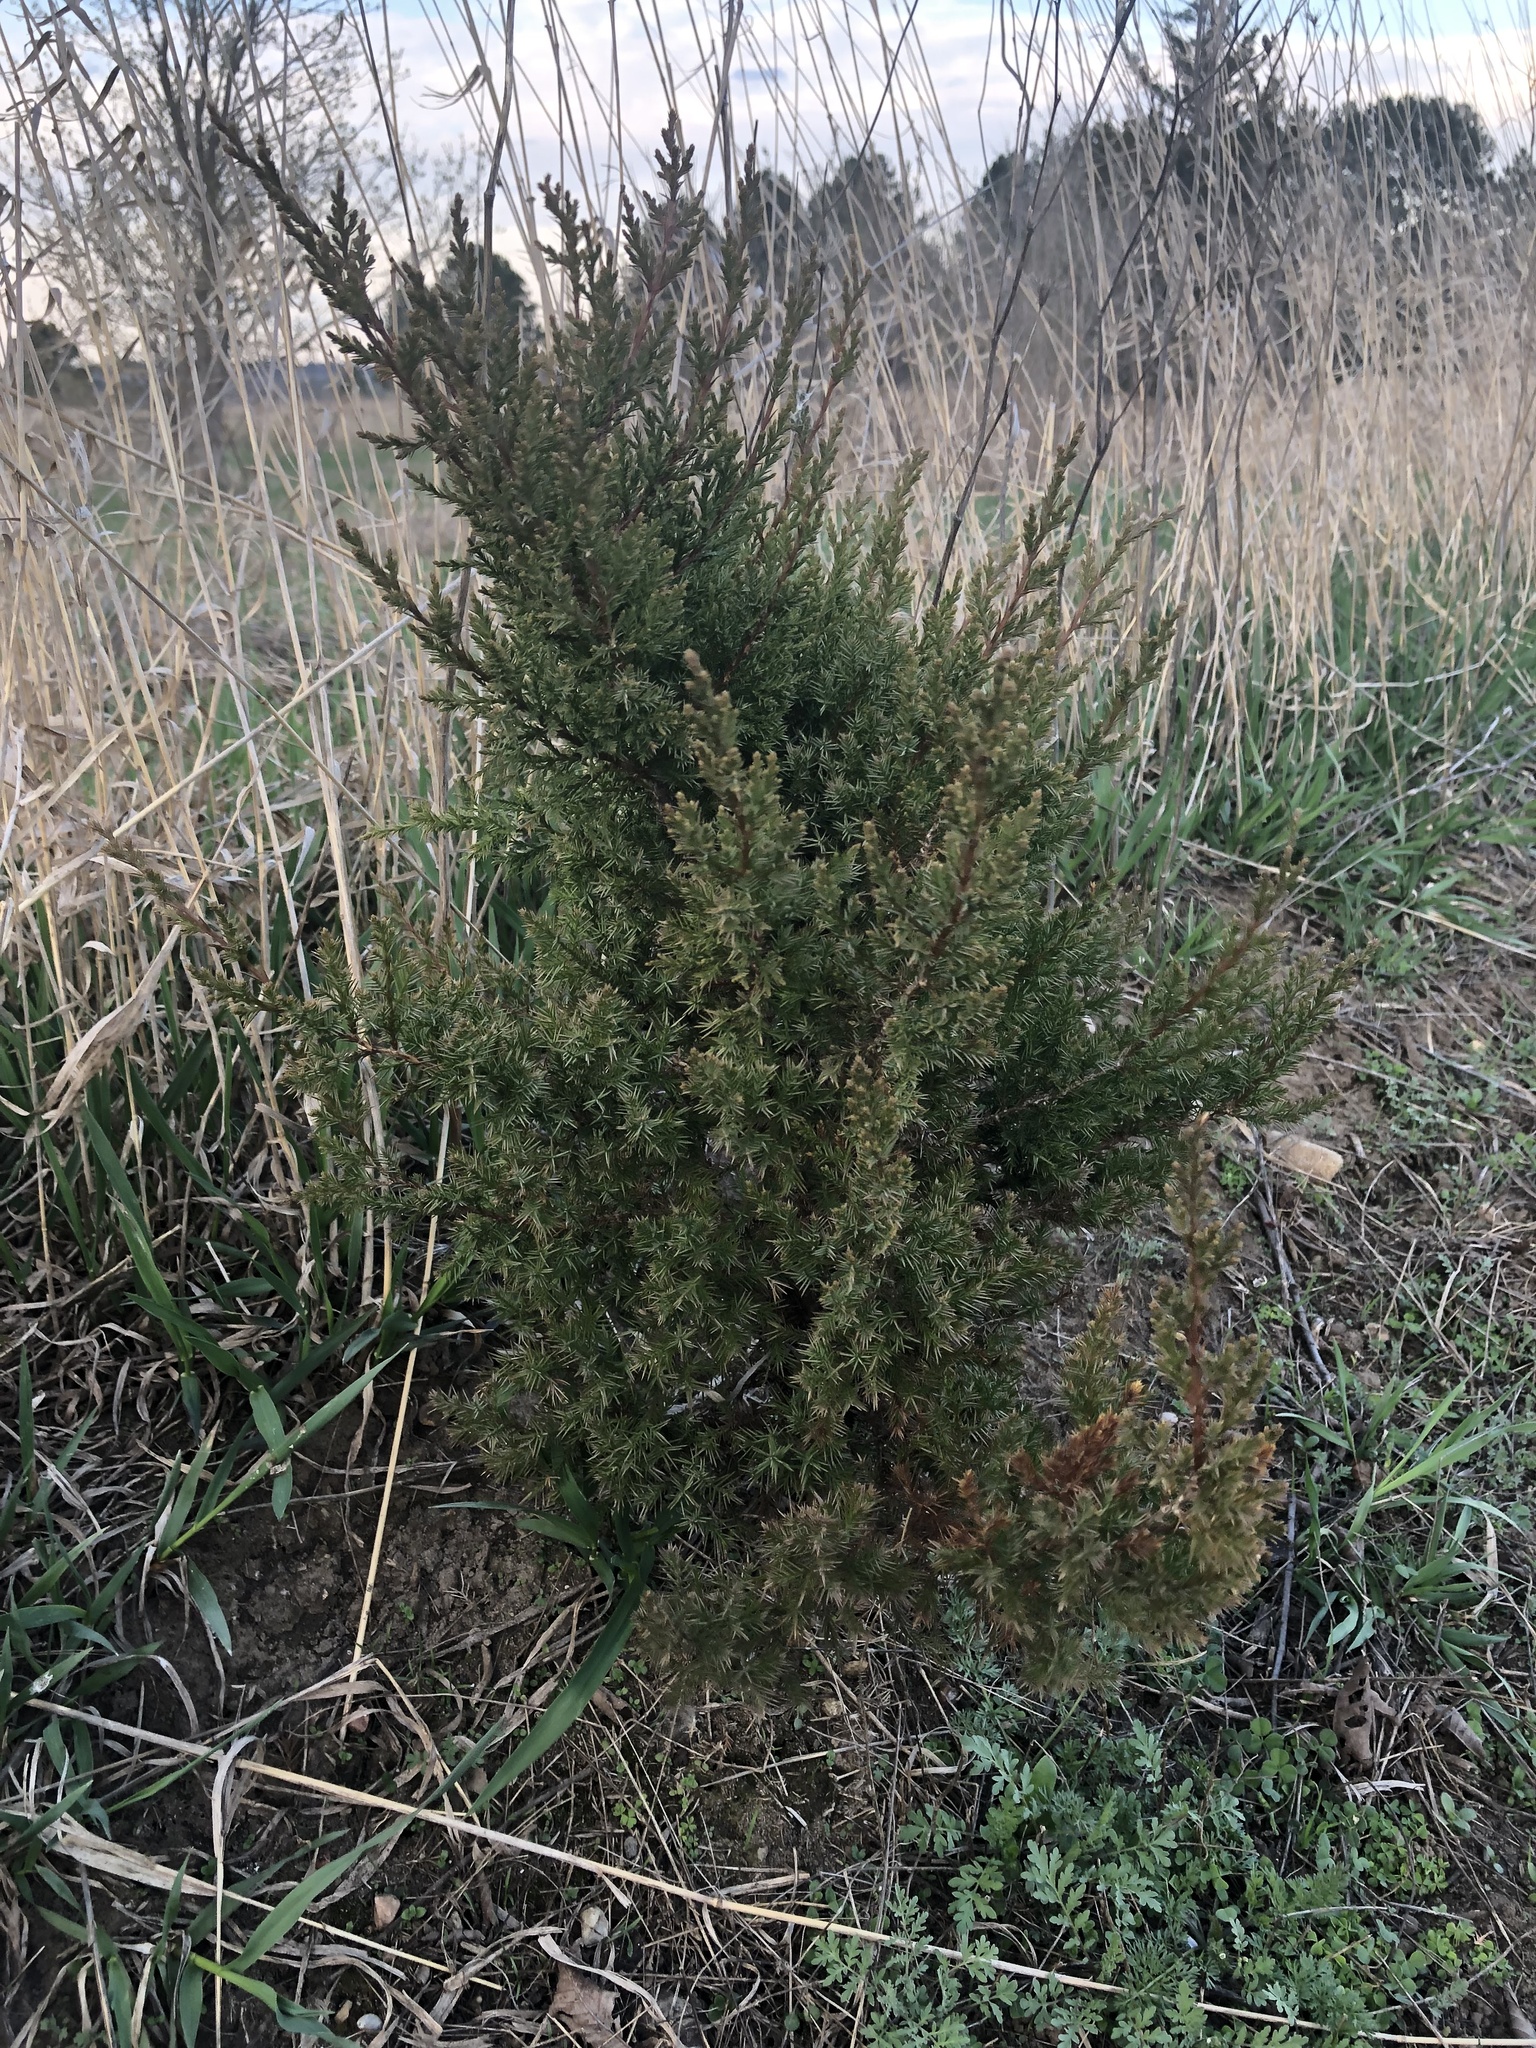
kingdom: Plantae
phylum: Tracheophyta
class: Pinopsida
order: Pinales
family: Cupressaceae
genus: Juniperus
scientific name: Juniperus virginiana
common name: Red juniper
